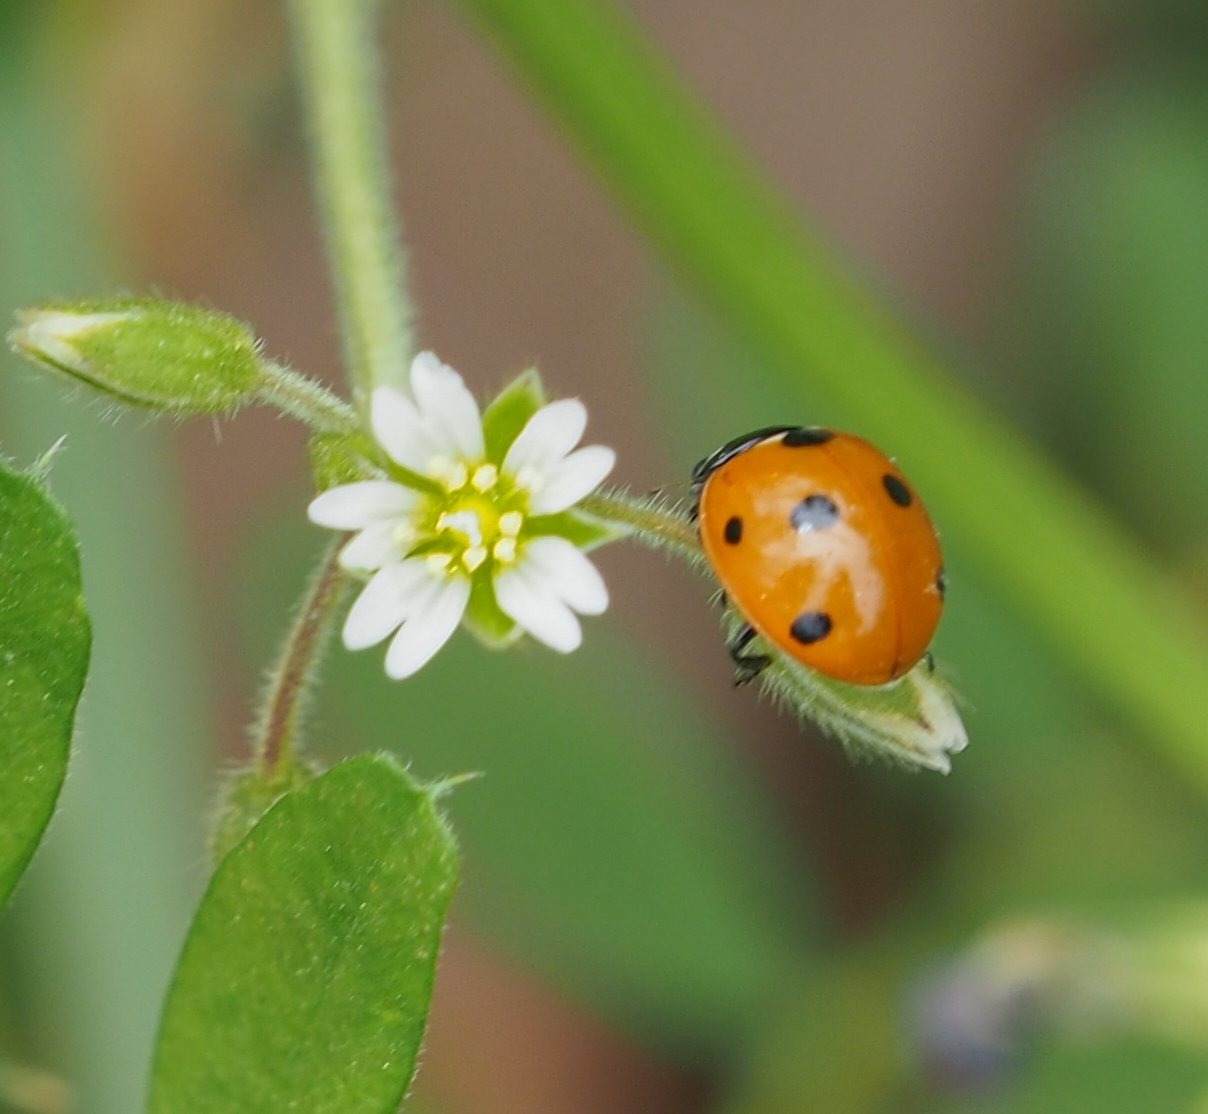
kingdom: Animalia
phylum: Arthropoda
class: Insecta
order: Coleoptera
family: Coccinellidae
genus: Coccinella
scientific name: Coccinella septempunctata
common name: Sevenspotted lady beetle
